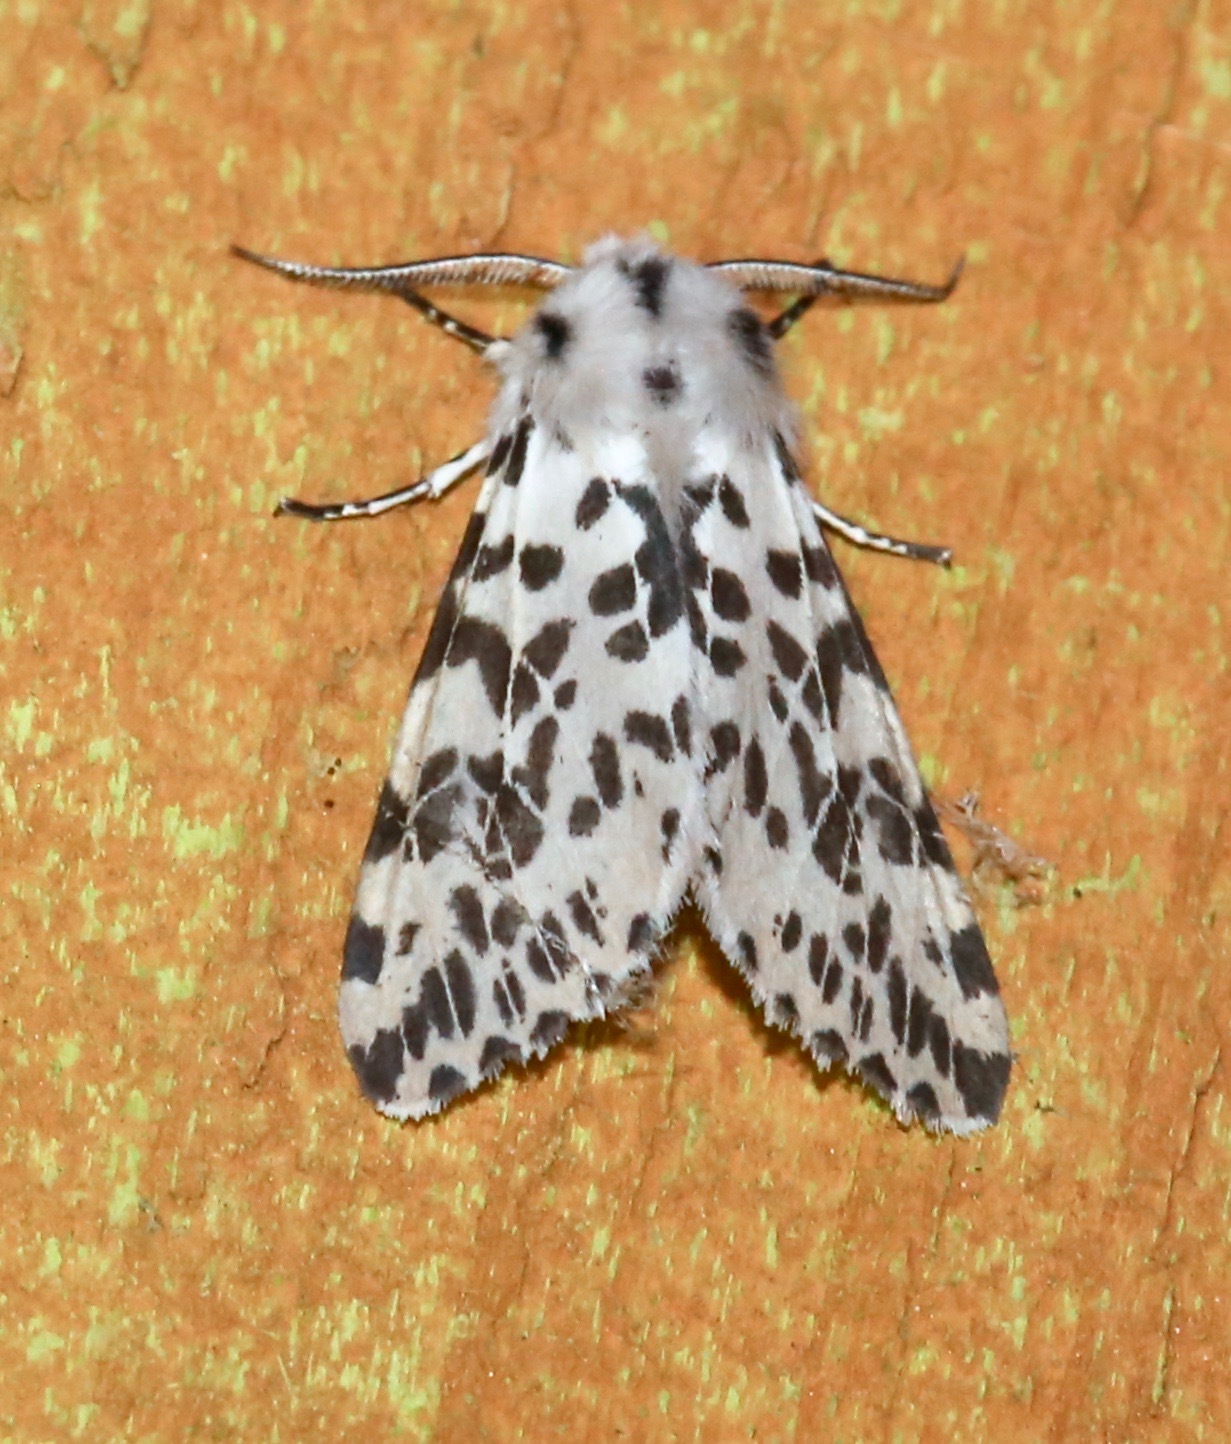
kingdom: Animalia
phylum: Arthropoda
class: Insecta
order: Lepidoptera
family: Erebidae
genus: Hyphantria
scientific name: Hyphantria cunea
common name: American white moth
